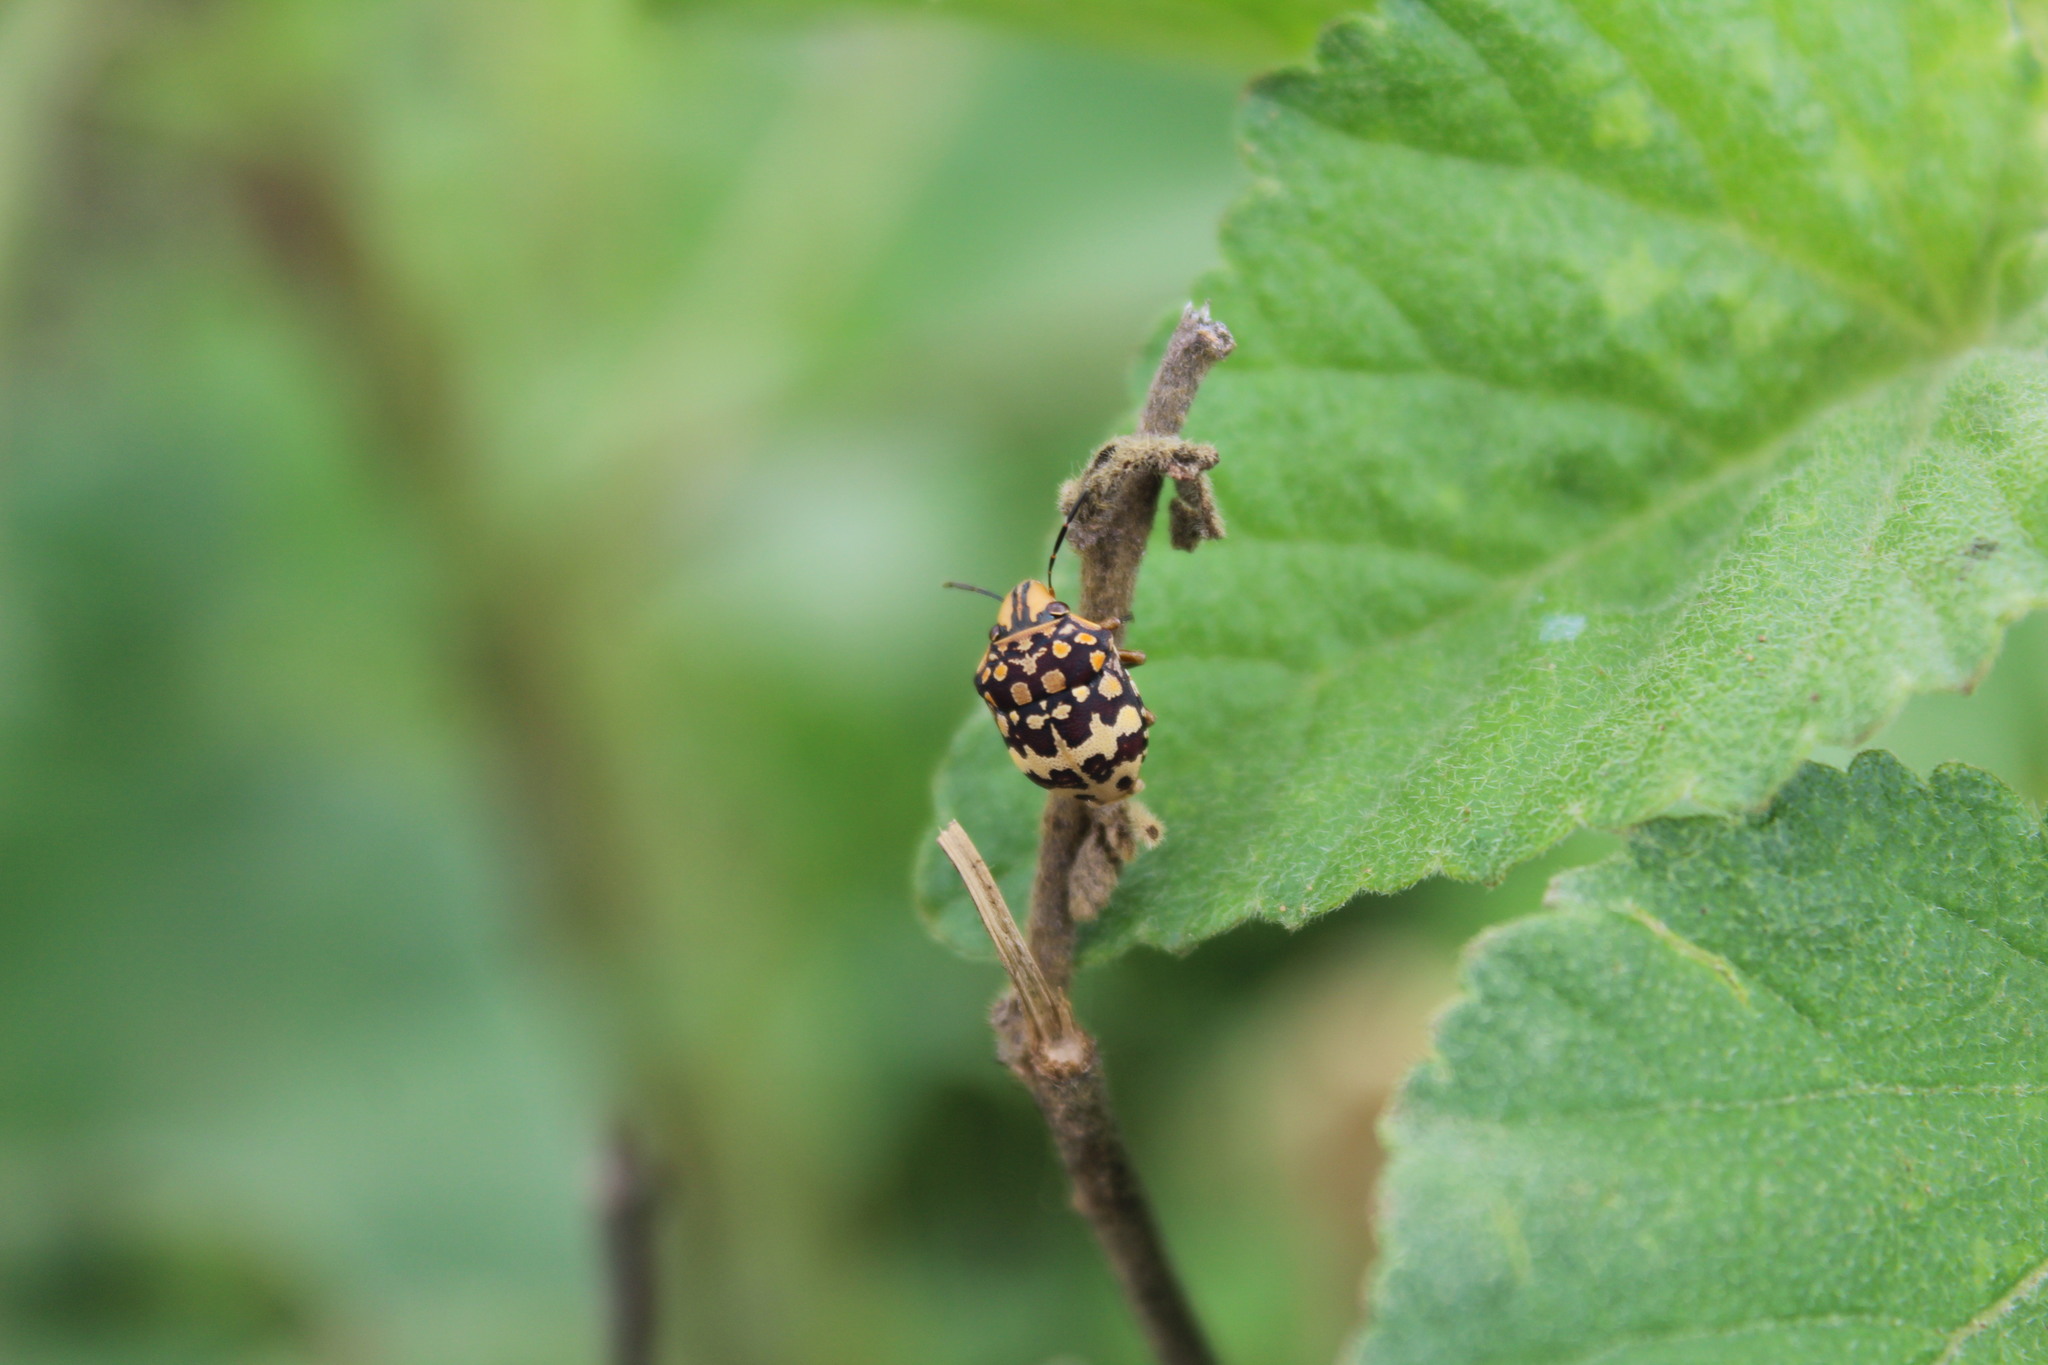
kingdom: Animalia
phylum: Arthropoda
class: Insecta
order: Hemiptera
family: Scutelleridae
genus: Orsilochides
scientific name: Orsilochides
